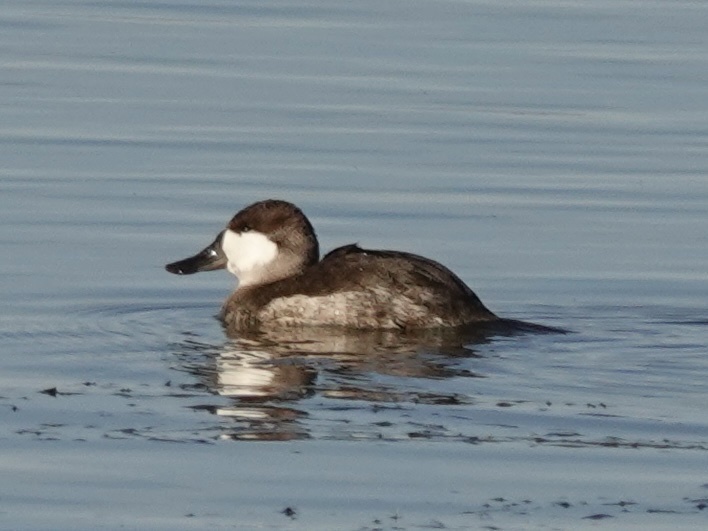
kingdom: Animalia
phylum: Chordata
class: Aves
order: Anseriformes
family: Anatidae
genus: Oxyura
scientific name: Oxyura jamaicensis
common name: Ruddy duck
